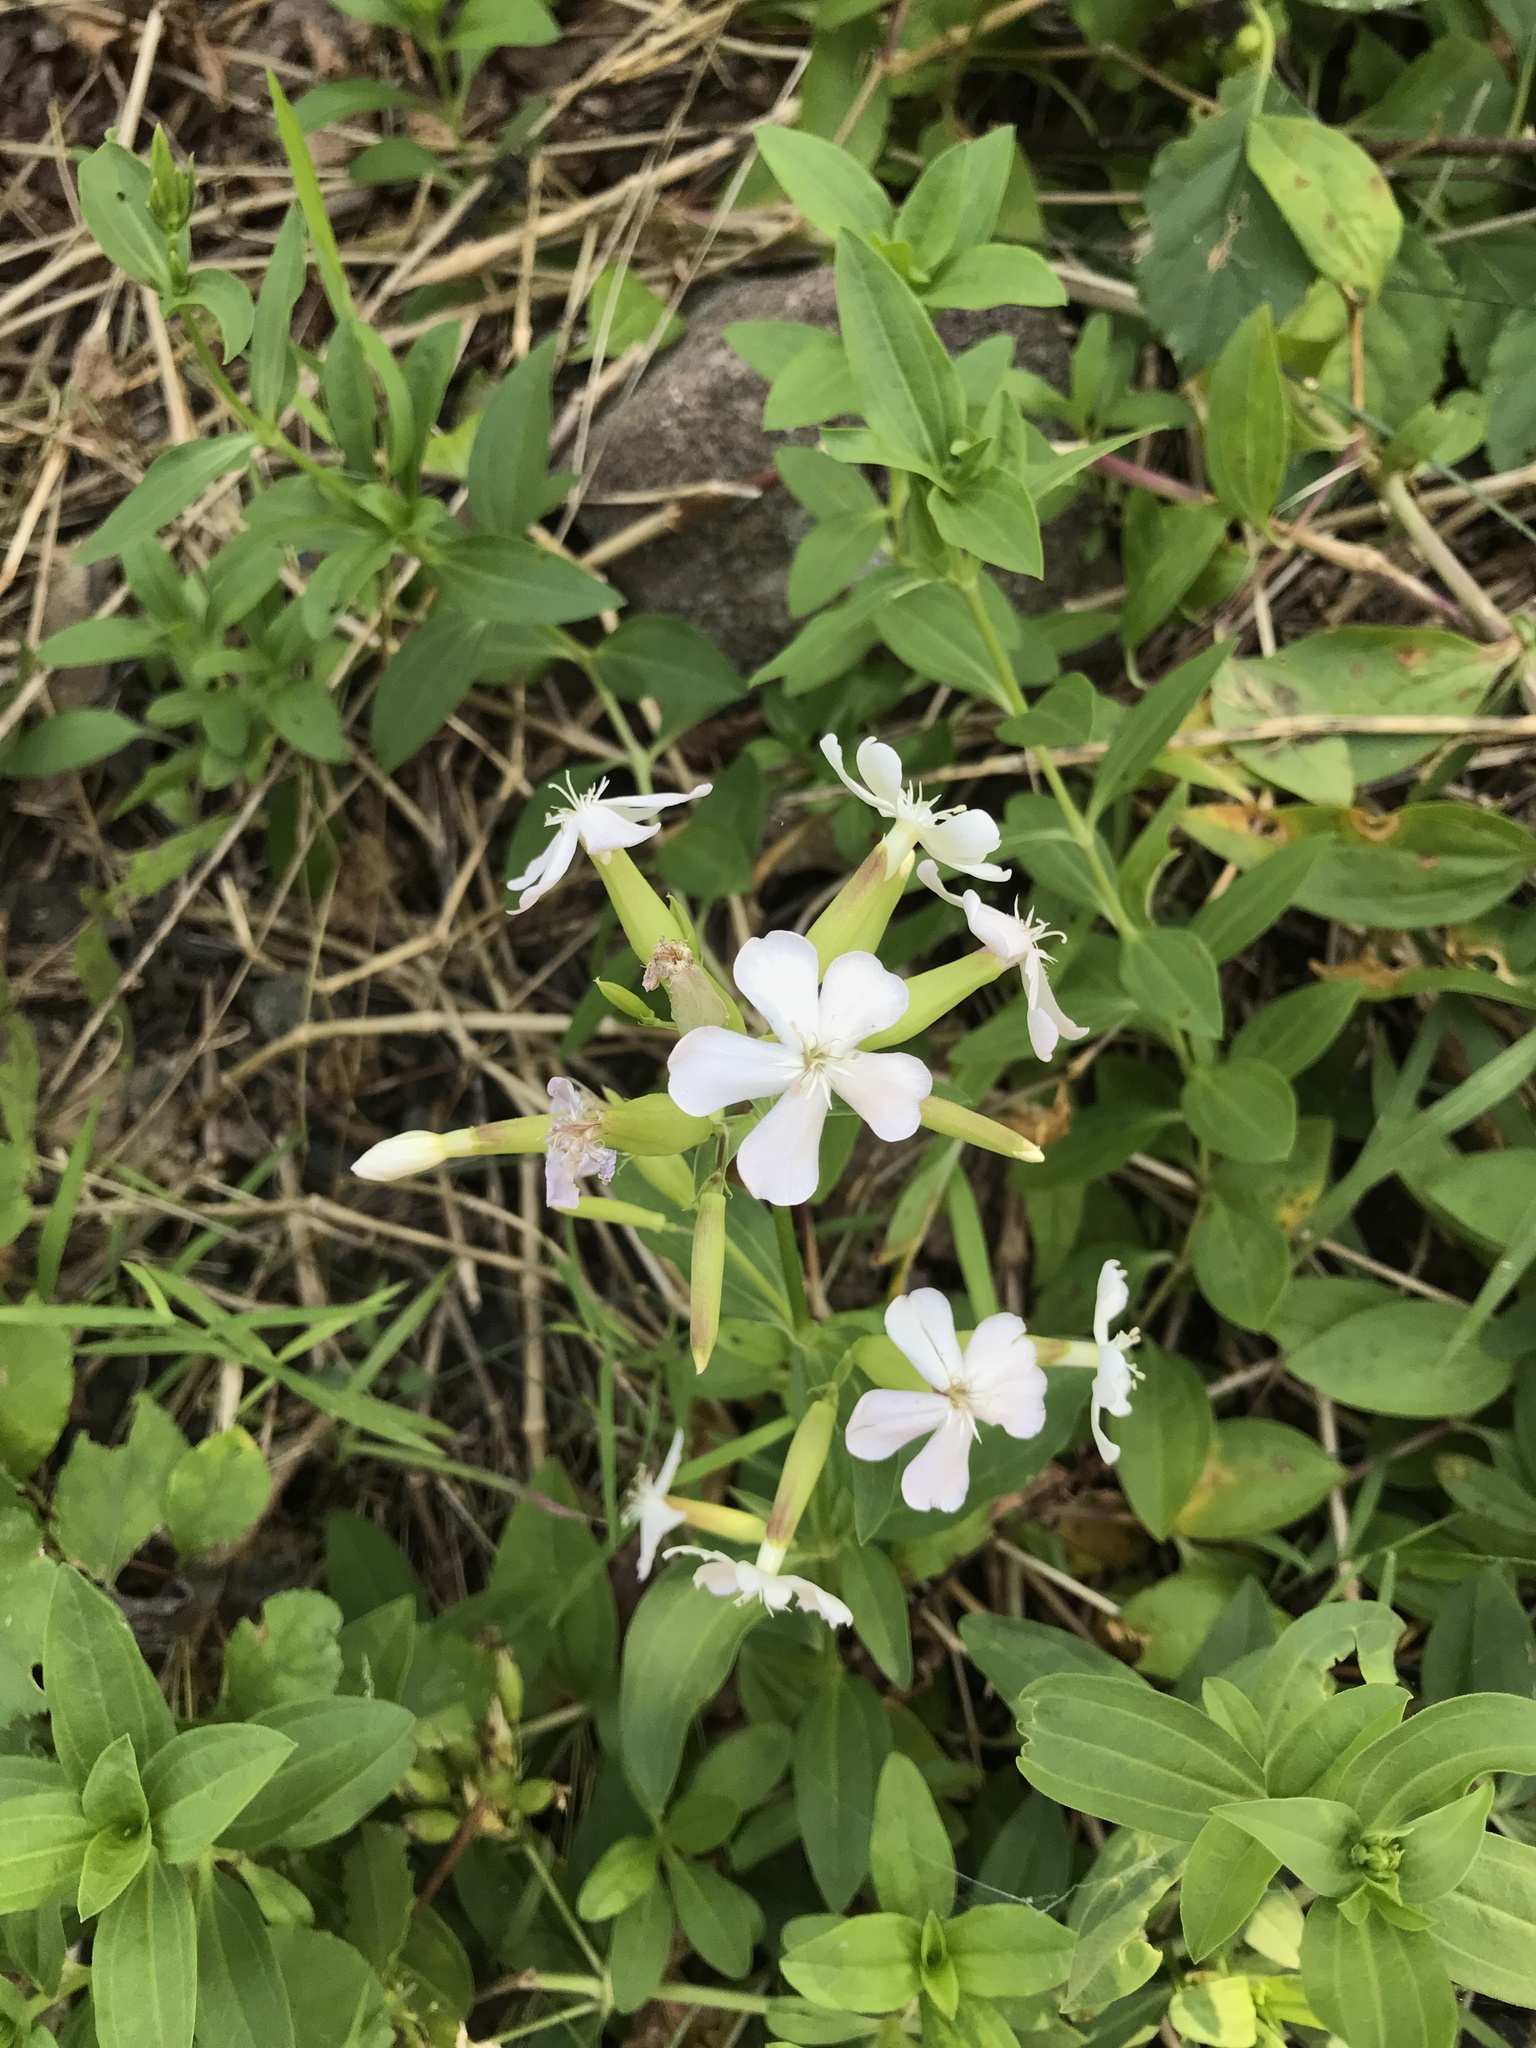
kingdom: Plantae
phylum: Tracheophyta
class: Magnoliopsida
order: Caryophyllales
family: Caryophyllaceae
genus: Saponaria
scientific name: Saponaria officinalis
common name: Soapwort
